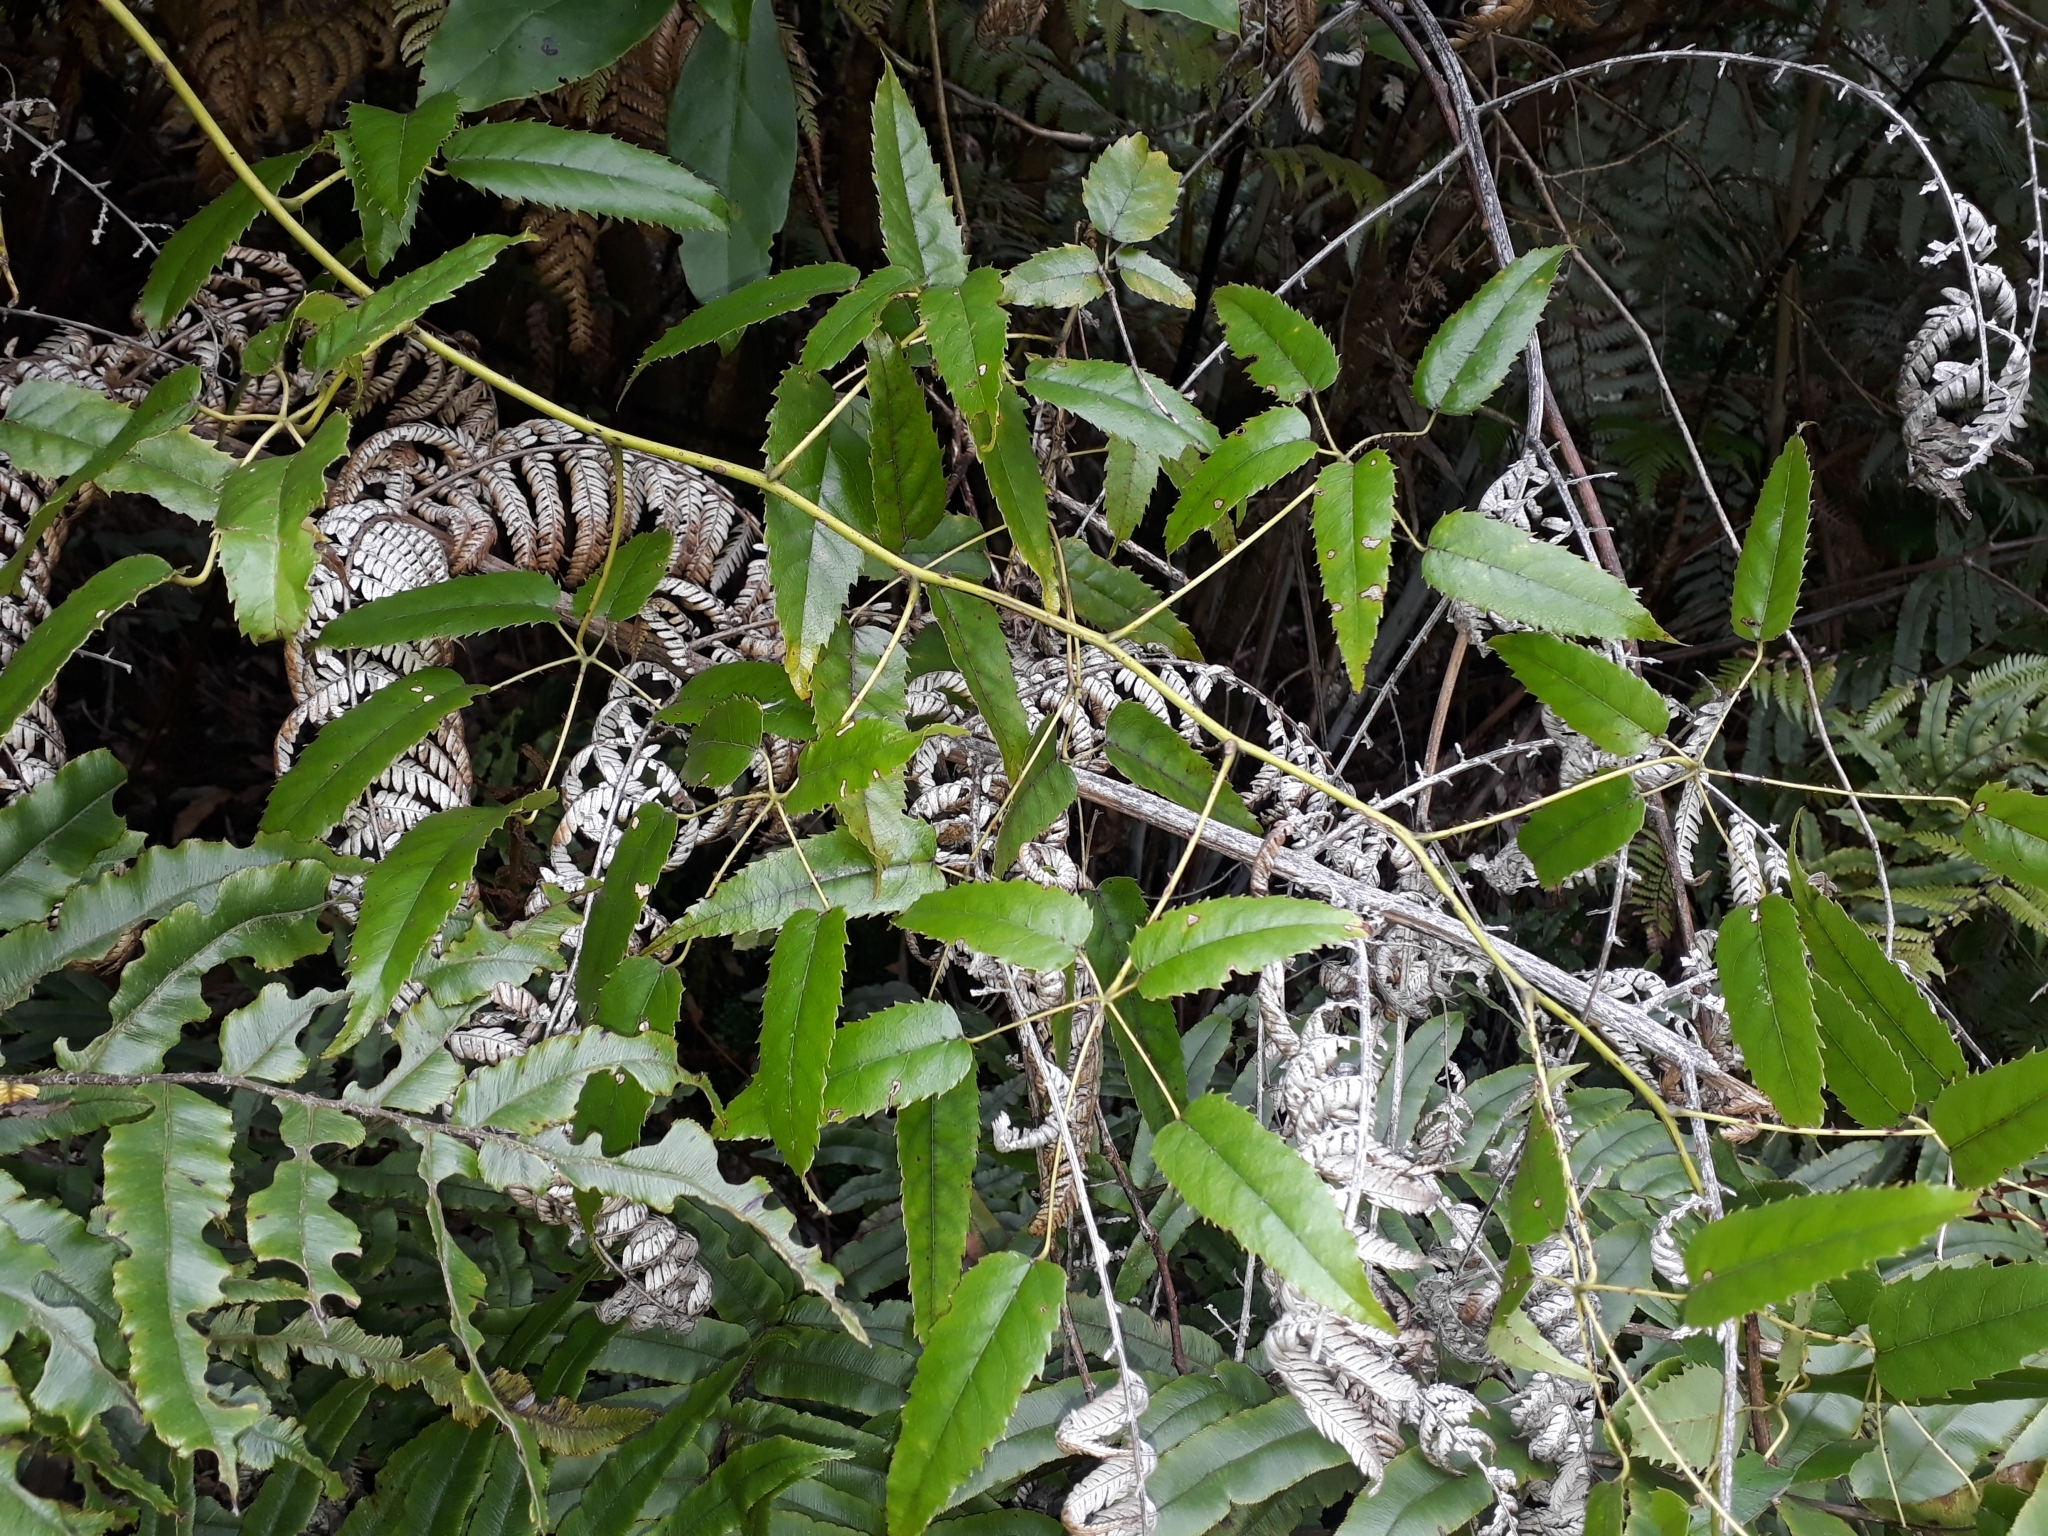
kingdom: Plantae
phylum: Tracheophyta
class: Magnoliopsida
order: Rosales
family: Rosaceae
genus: Rubus
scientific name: Rubus cissoides
